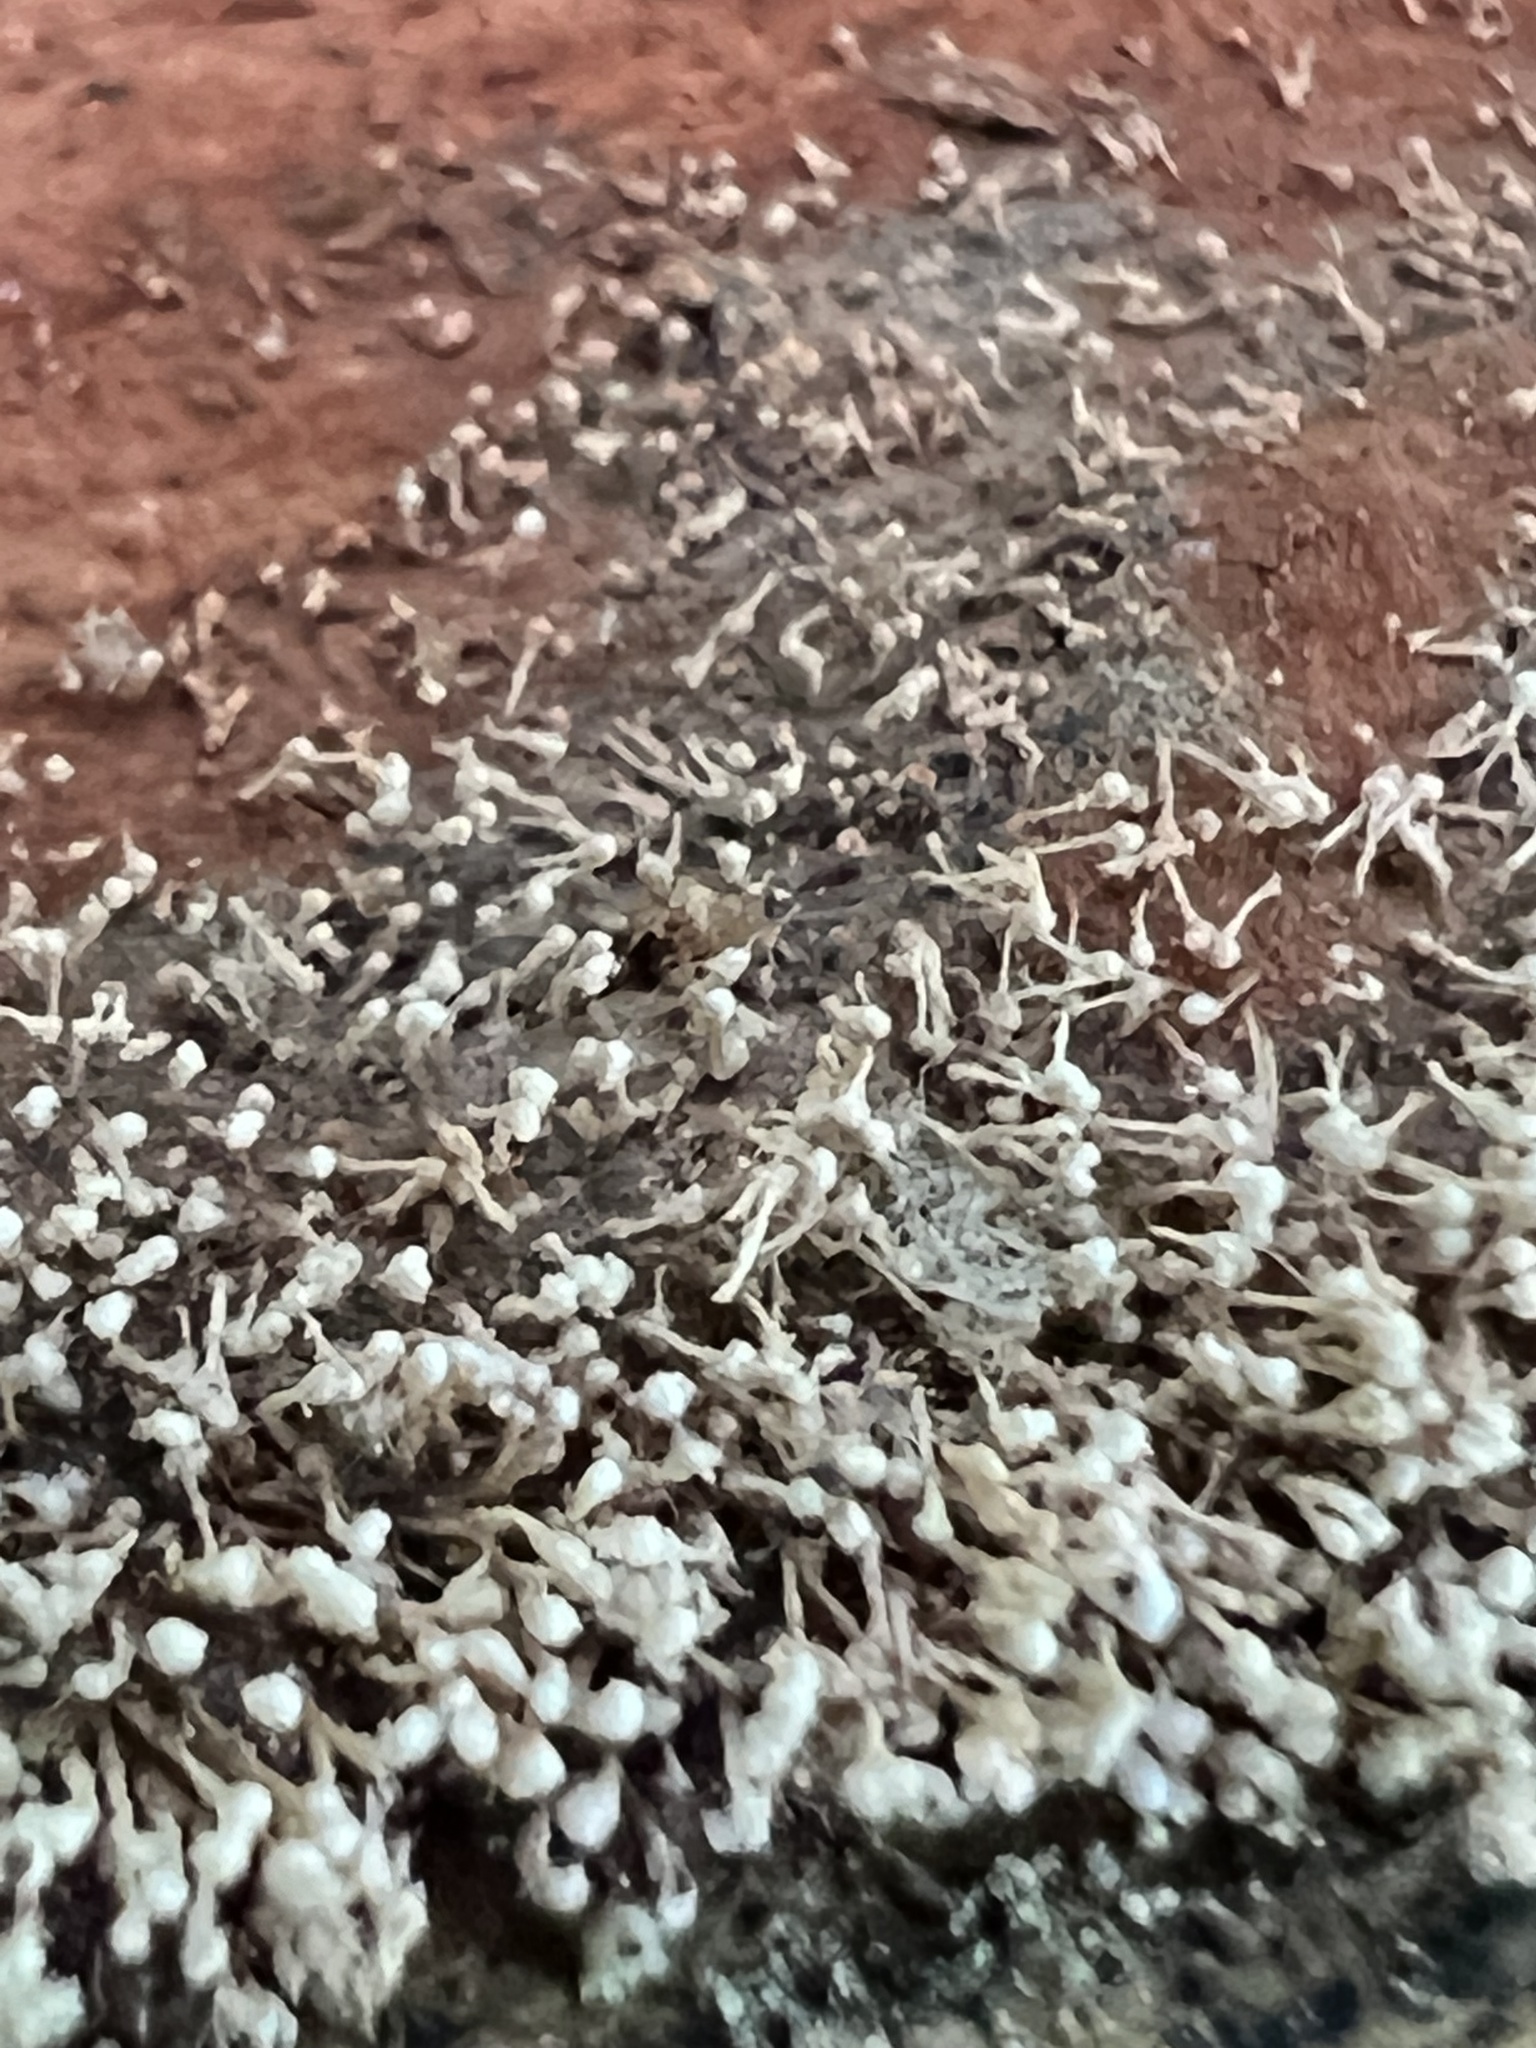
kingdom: Fungi
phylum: Basidiomycota
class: Atractiellomycetes
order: Atractiellales
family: Phleogenaceae
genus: Phleogena
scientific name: Phleogena faginea
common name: Fenugreek stalkball
